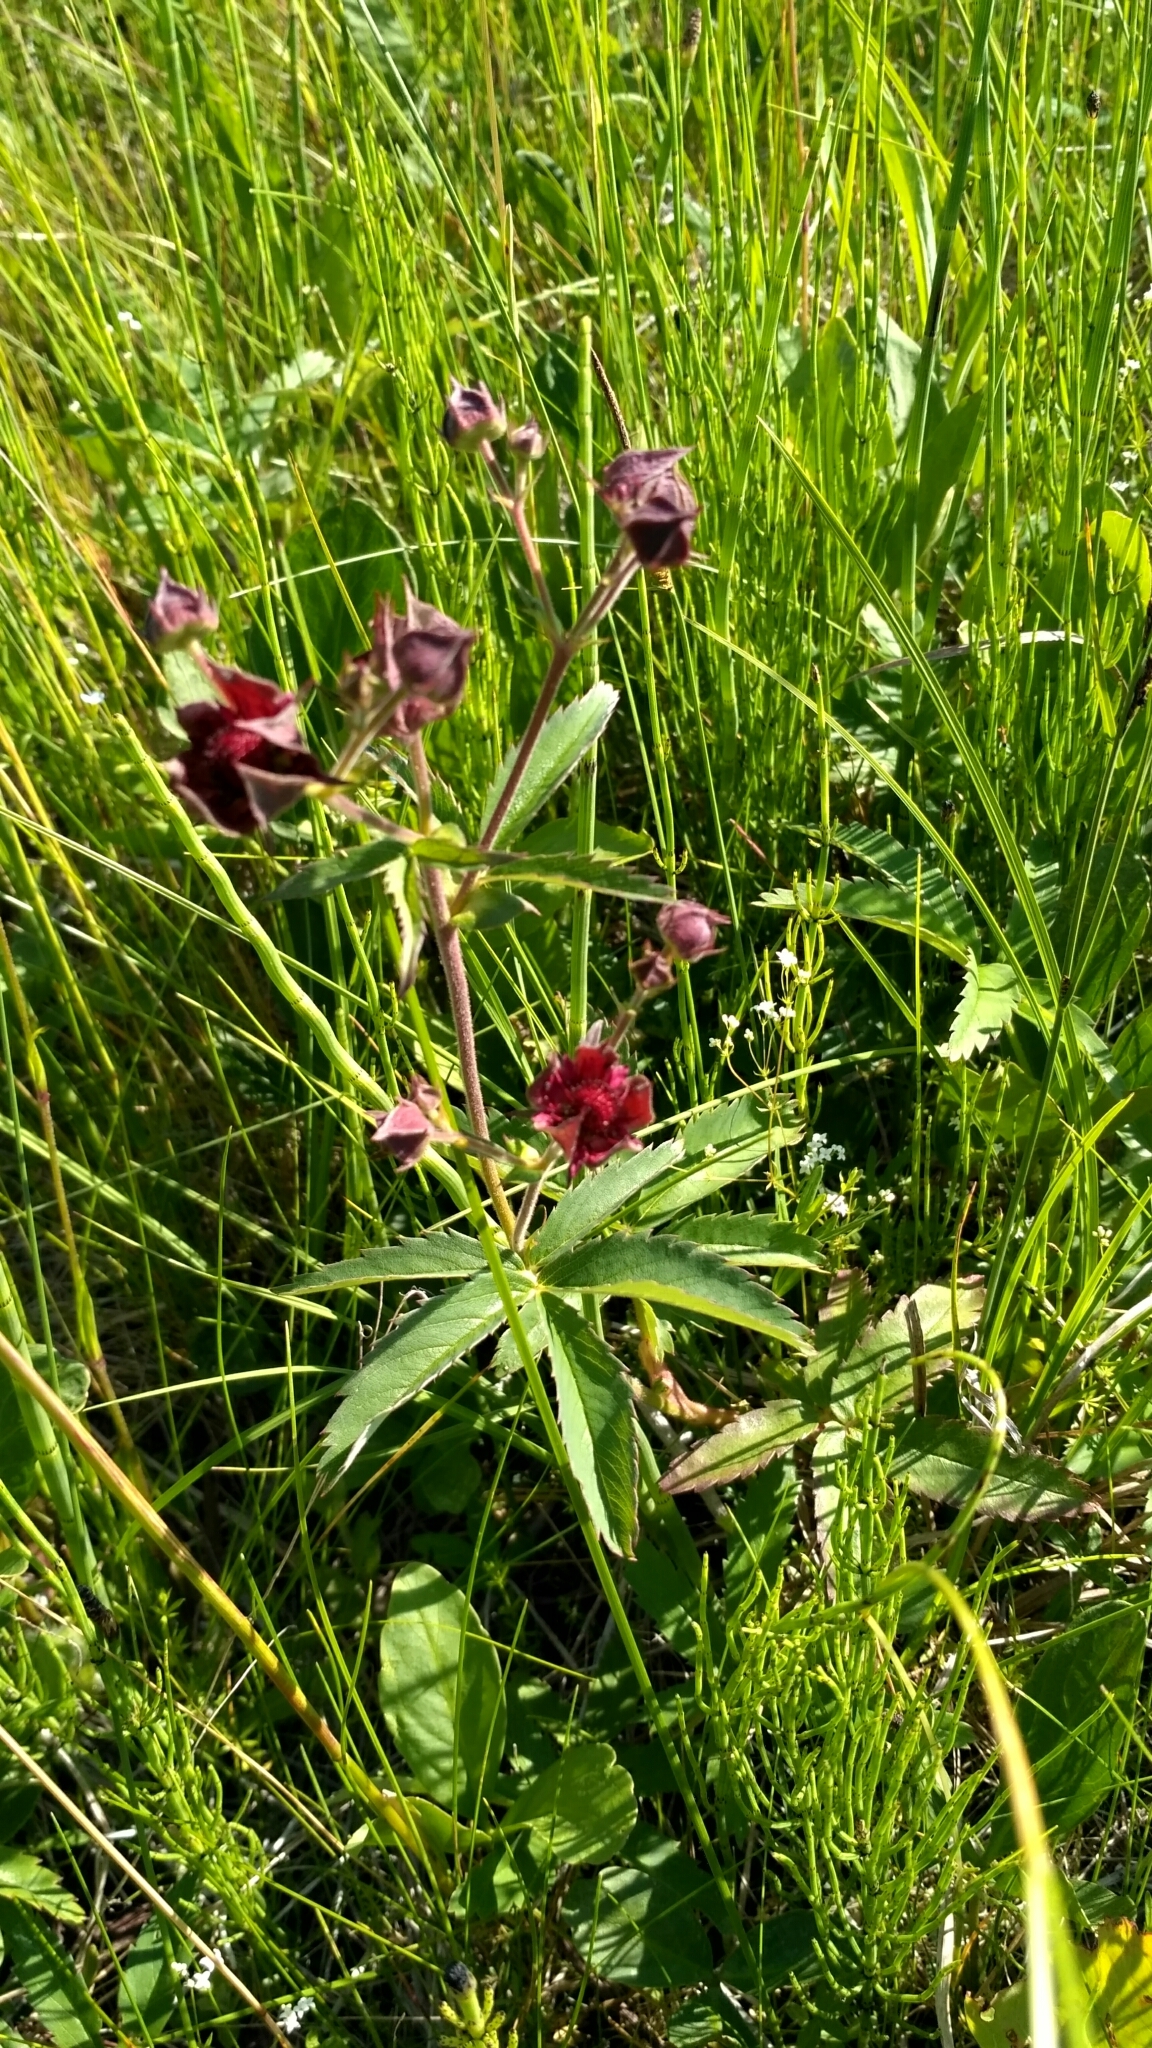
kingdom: Plantae
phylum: Tracheophyta
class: Magnoliopsida
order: Rosales
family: Rosaceae
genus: Comarum
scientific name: Comarum palustre
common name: Marsh cinquefoil
